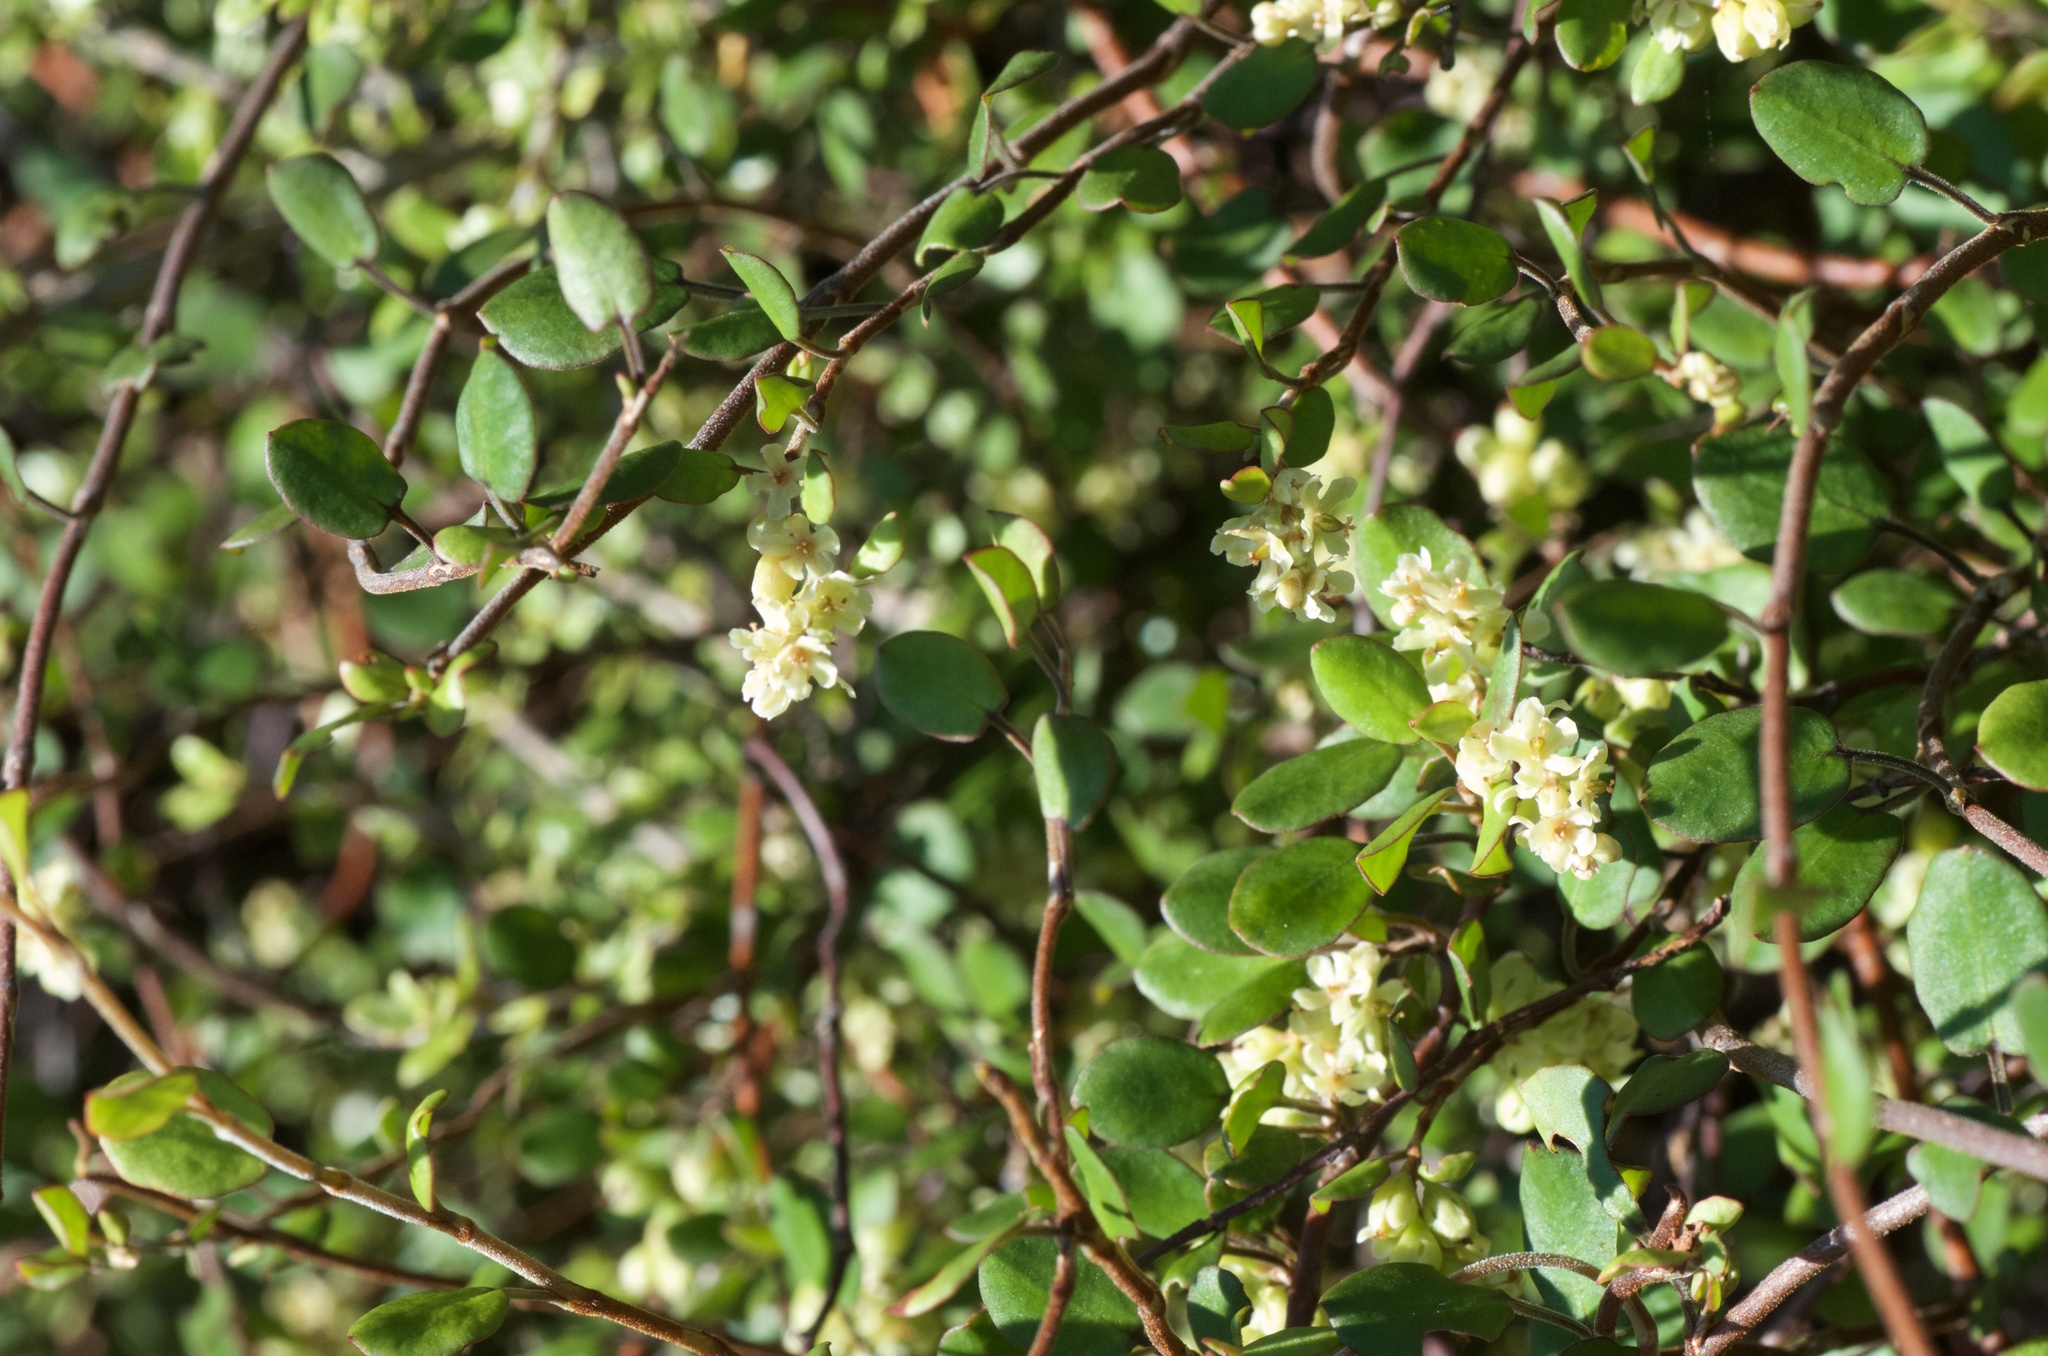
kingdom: Plantae
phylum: Tracheophyta
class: Magnoliopsida
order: Caryophyllales
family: Polygonaceae
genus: Muehlenbeckia
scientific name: Muehlenbeckia complexa
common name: Wireplant
